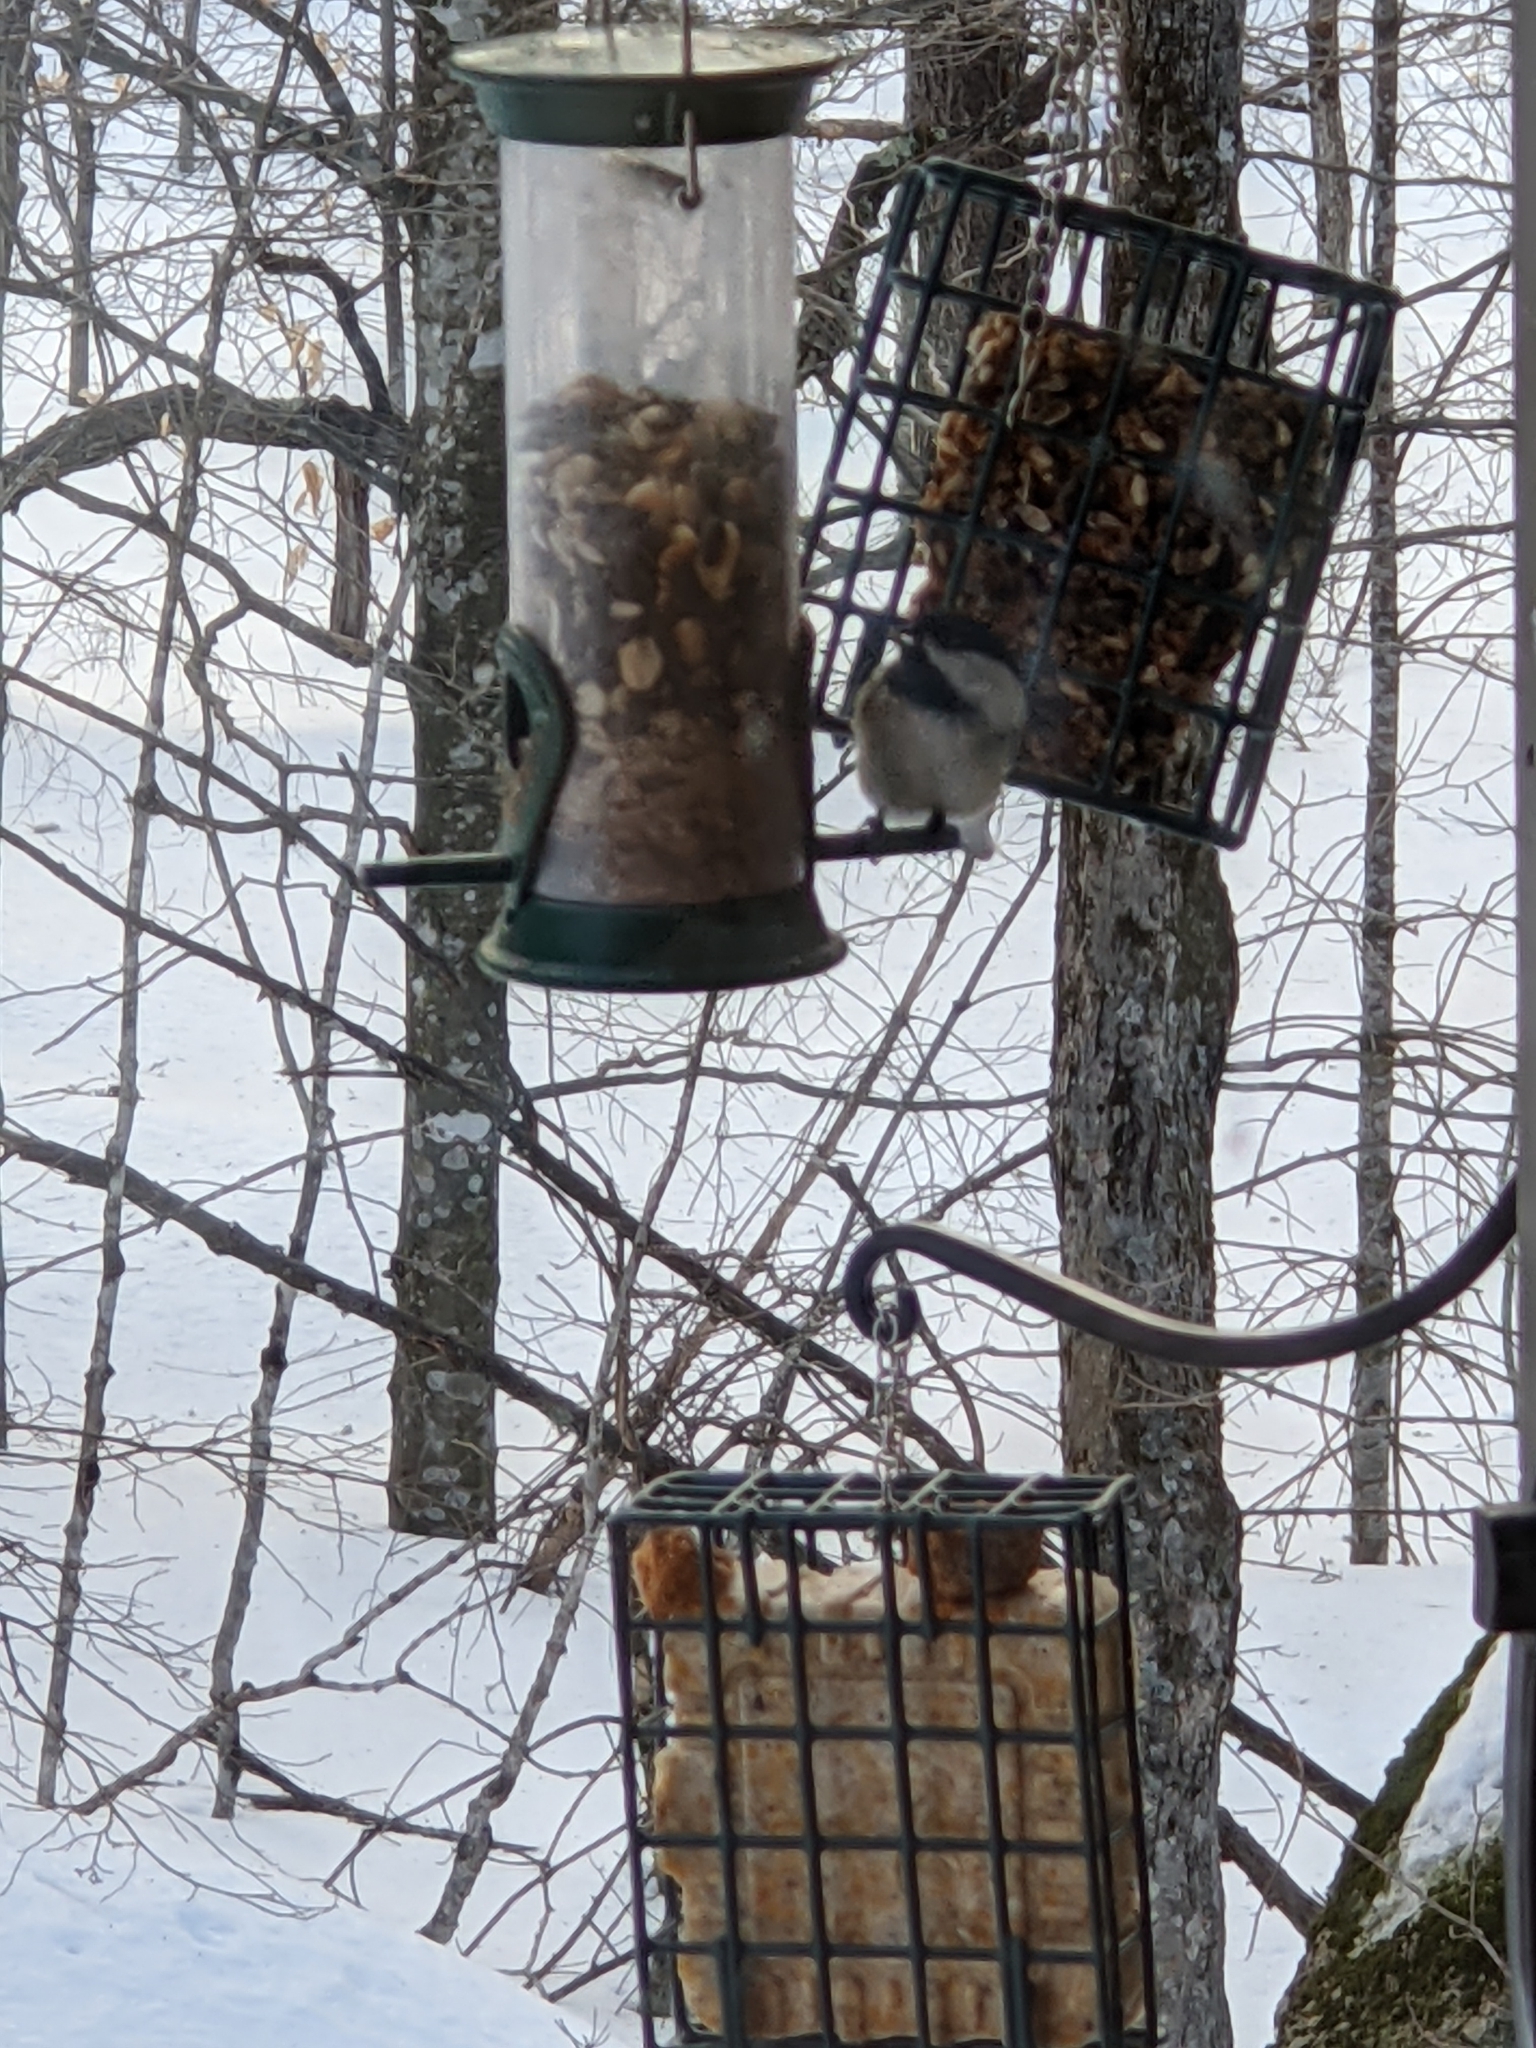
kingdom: Animalia
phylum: Chordata
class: Aves
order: Passeriformes
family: Paridae
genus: Poecile
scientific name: Poecile atricapillus
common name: Black-capped chickadee
